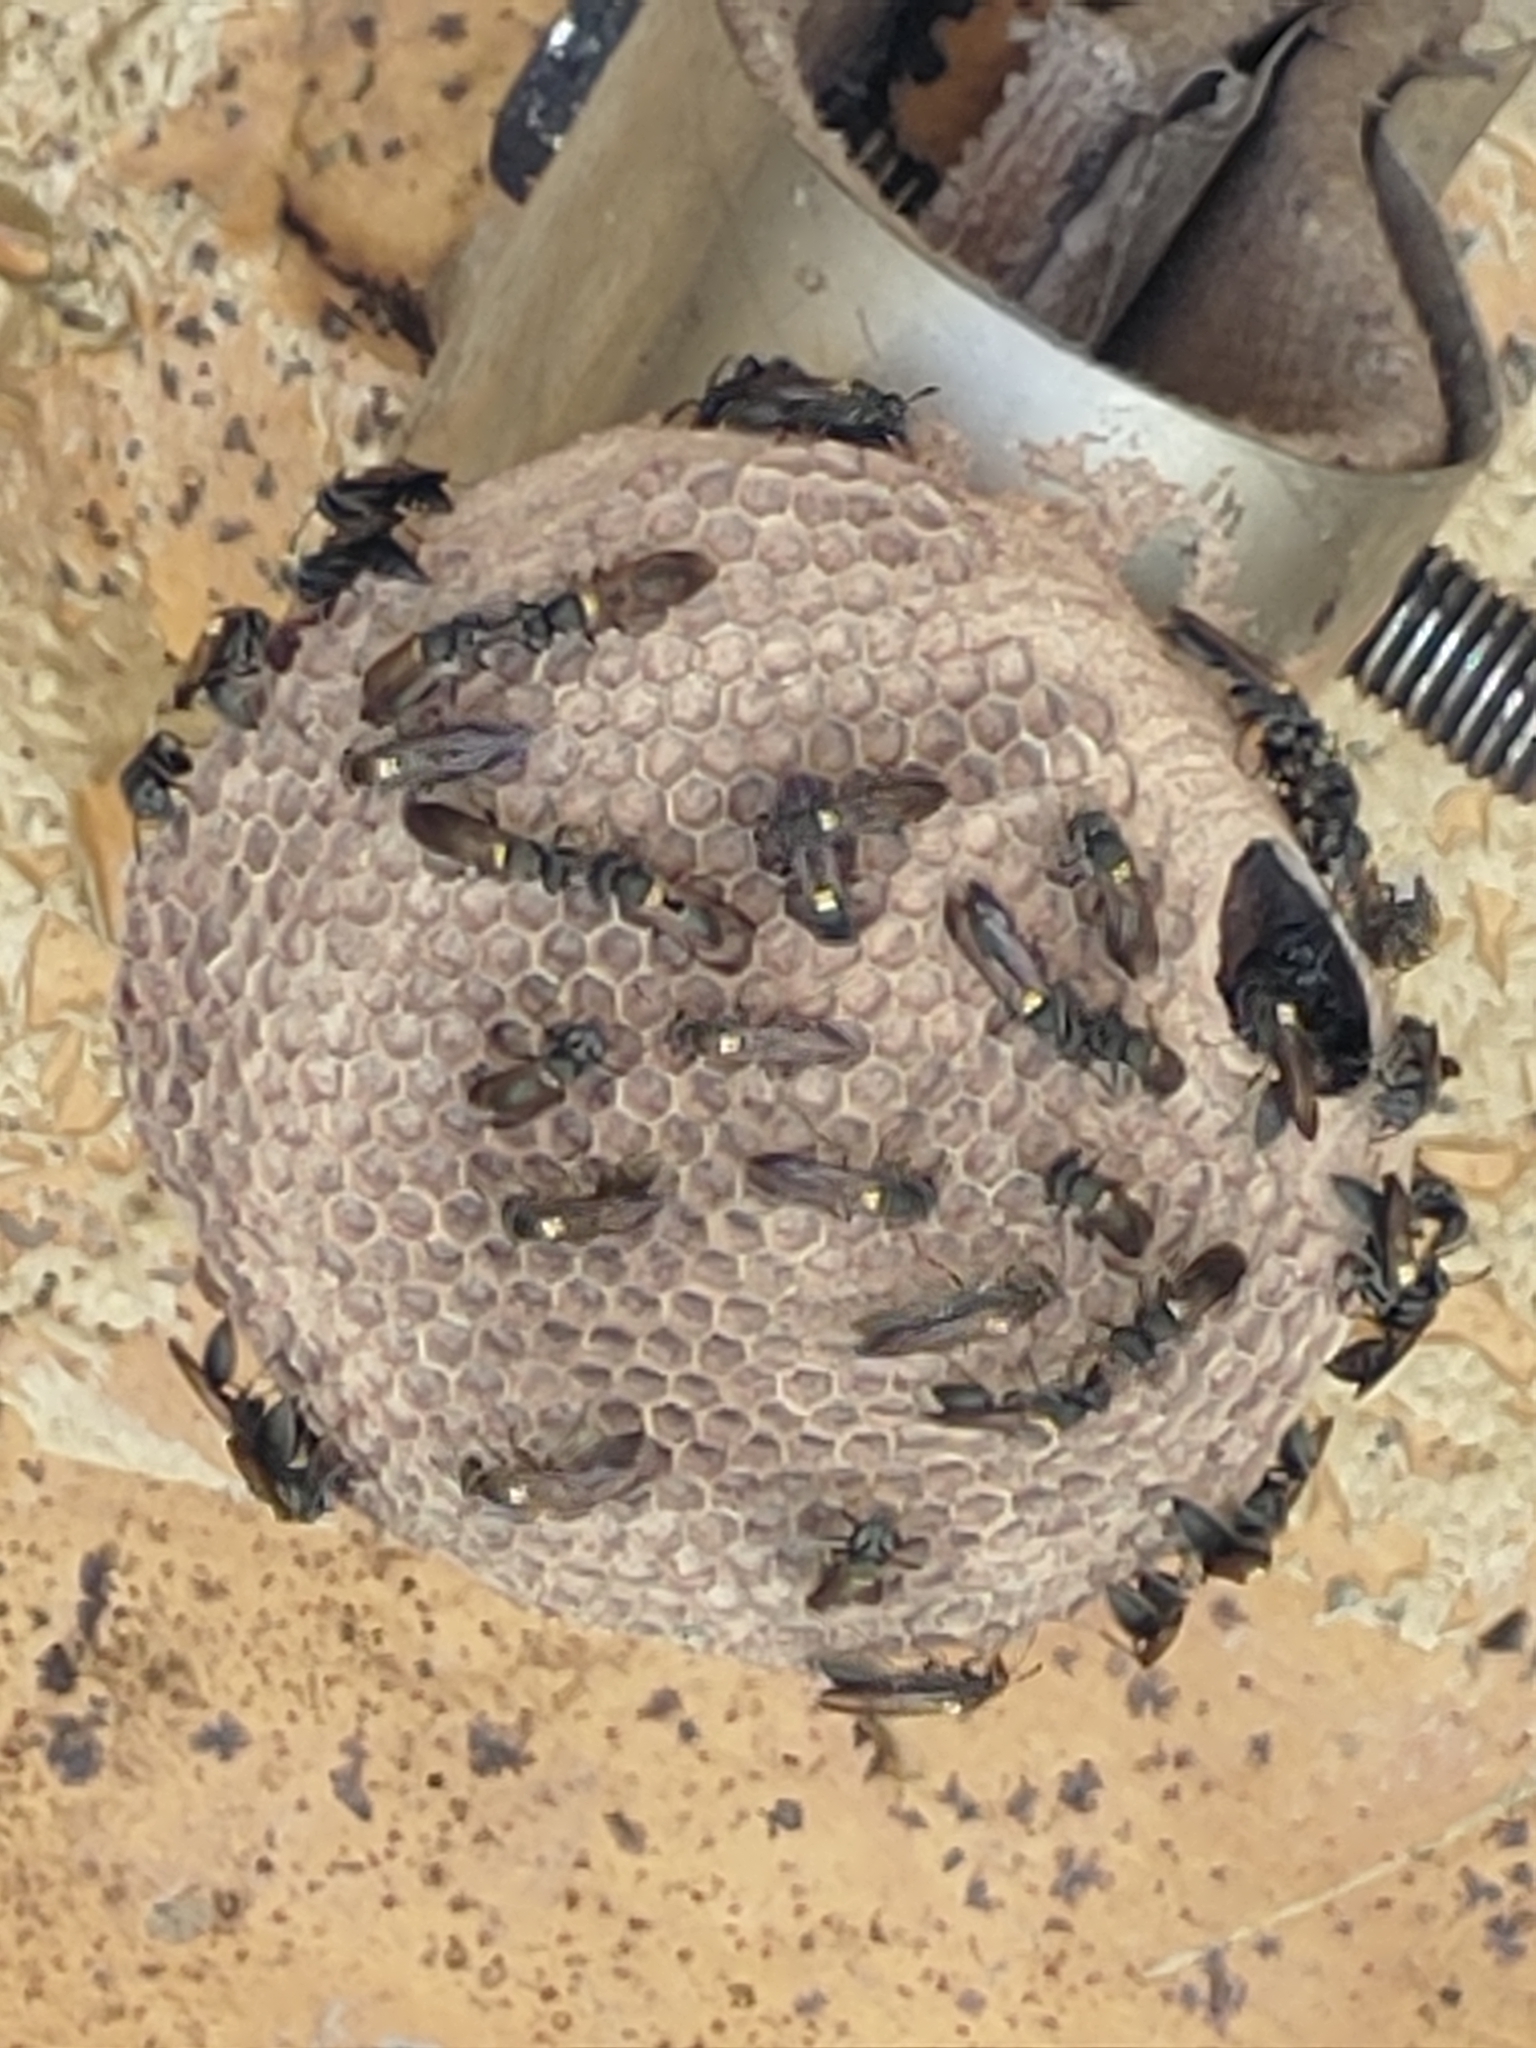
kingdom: Animalia
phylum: Arthropoda
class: Insecta
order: Hymenoptera
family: Eumenidae
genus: Polybia
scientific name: Polybia paulista
